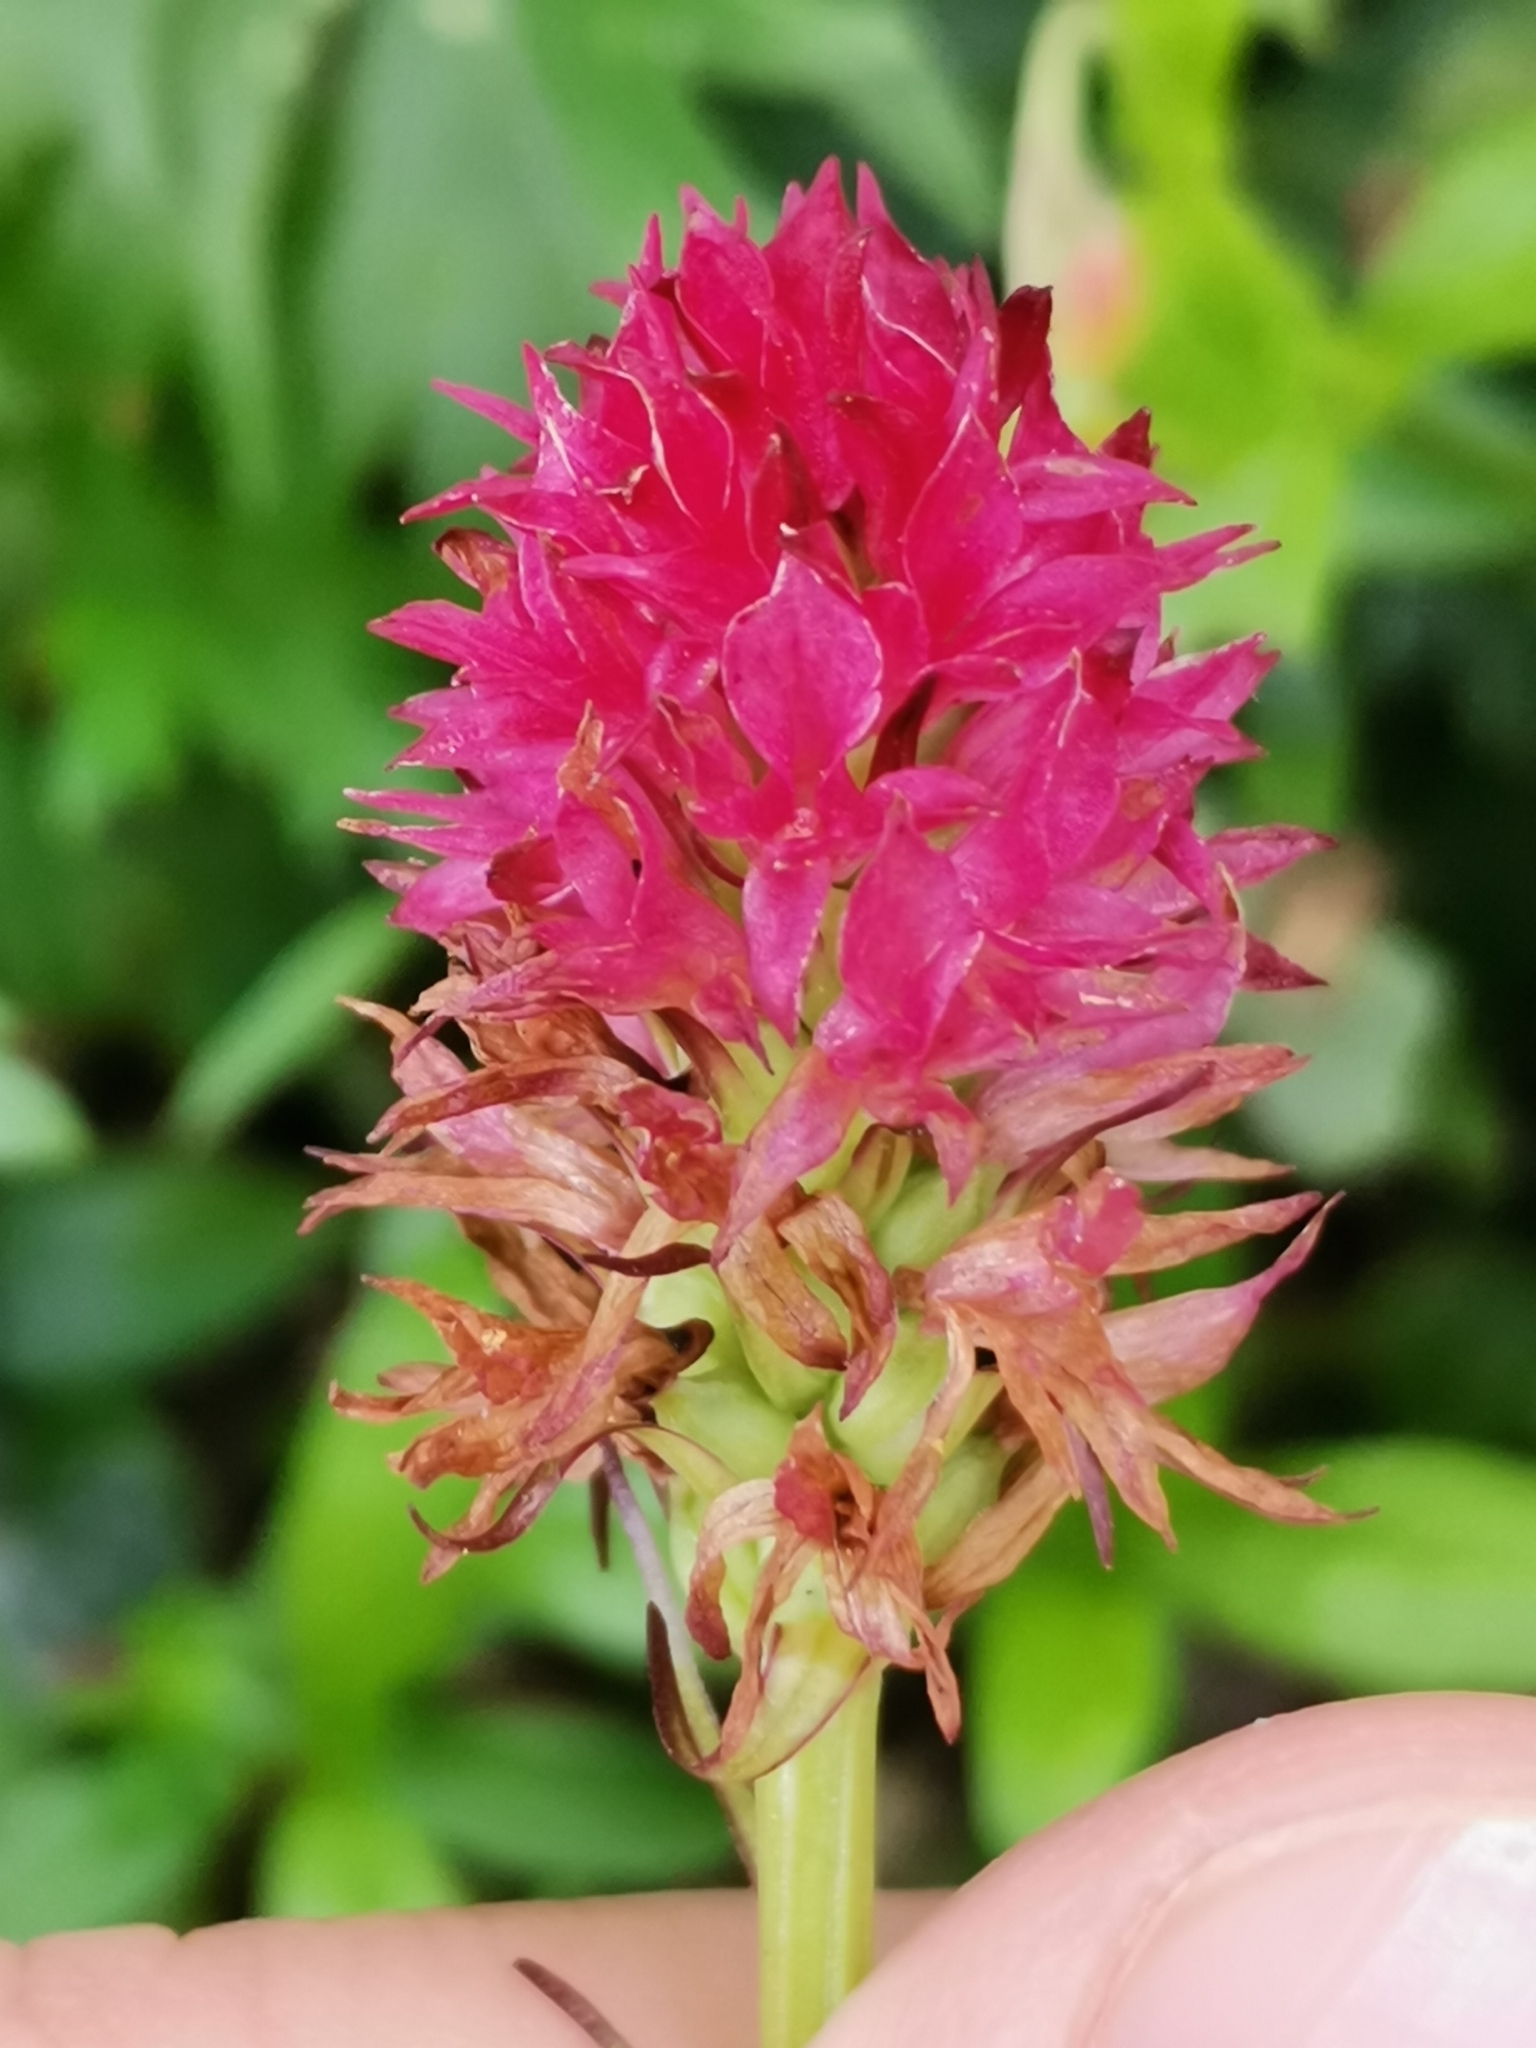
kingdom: Plantae
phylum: Tracheophyta
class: Liliopsida
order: Asparagales
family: Orchidaceae
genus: Gymnadenia
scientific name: Gymnadenia miniata
